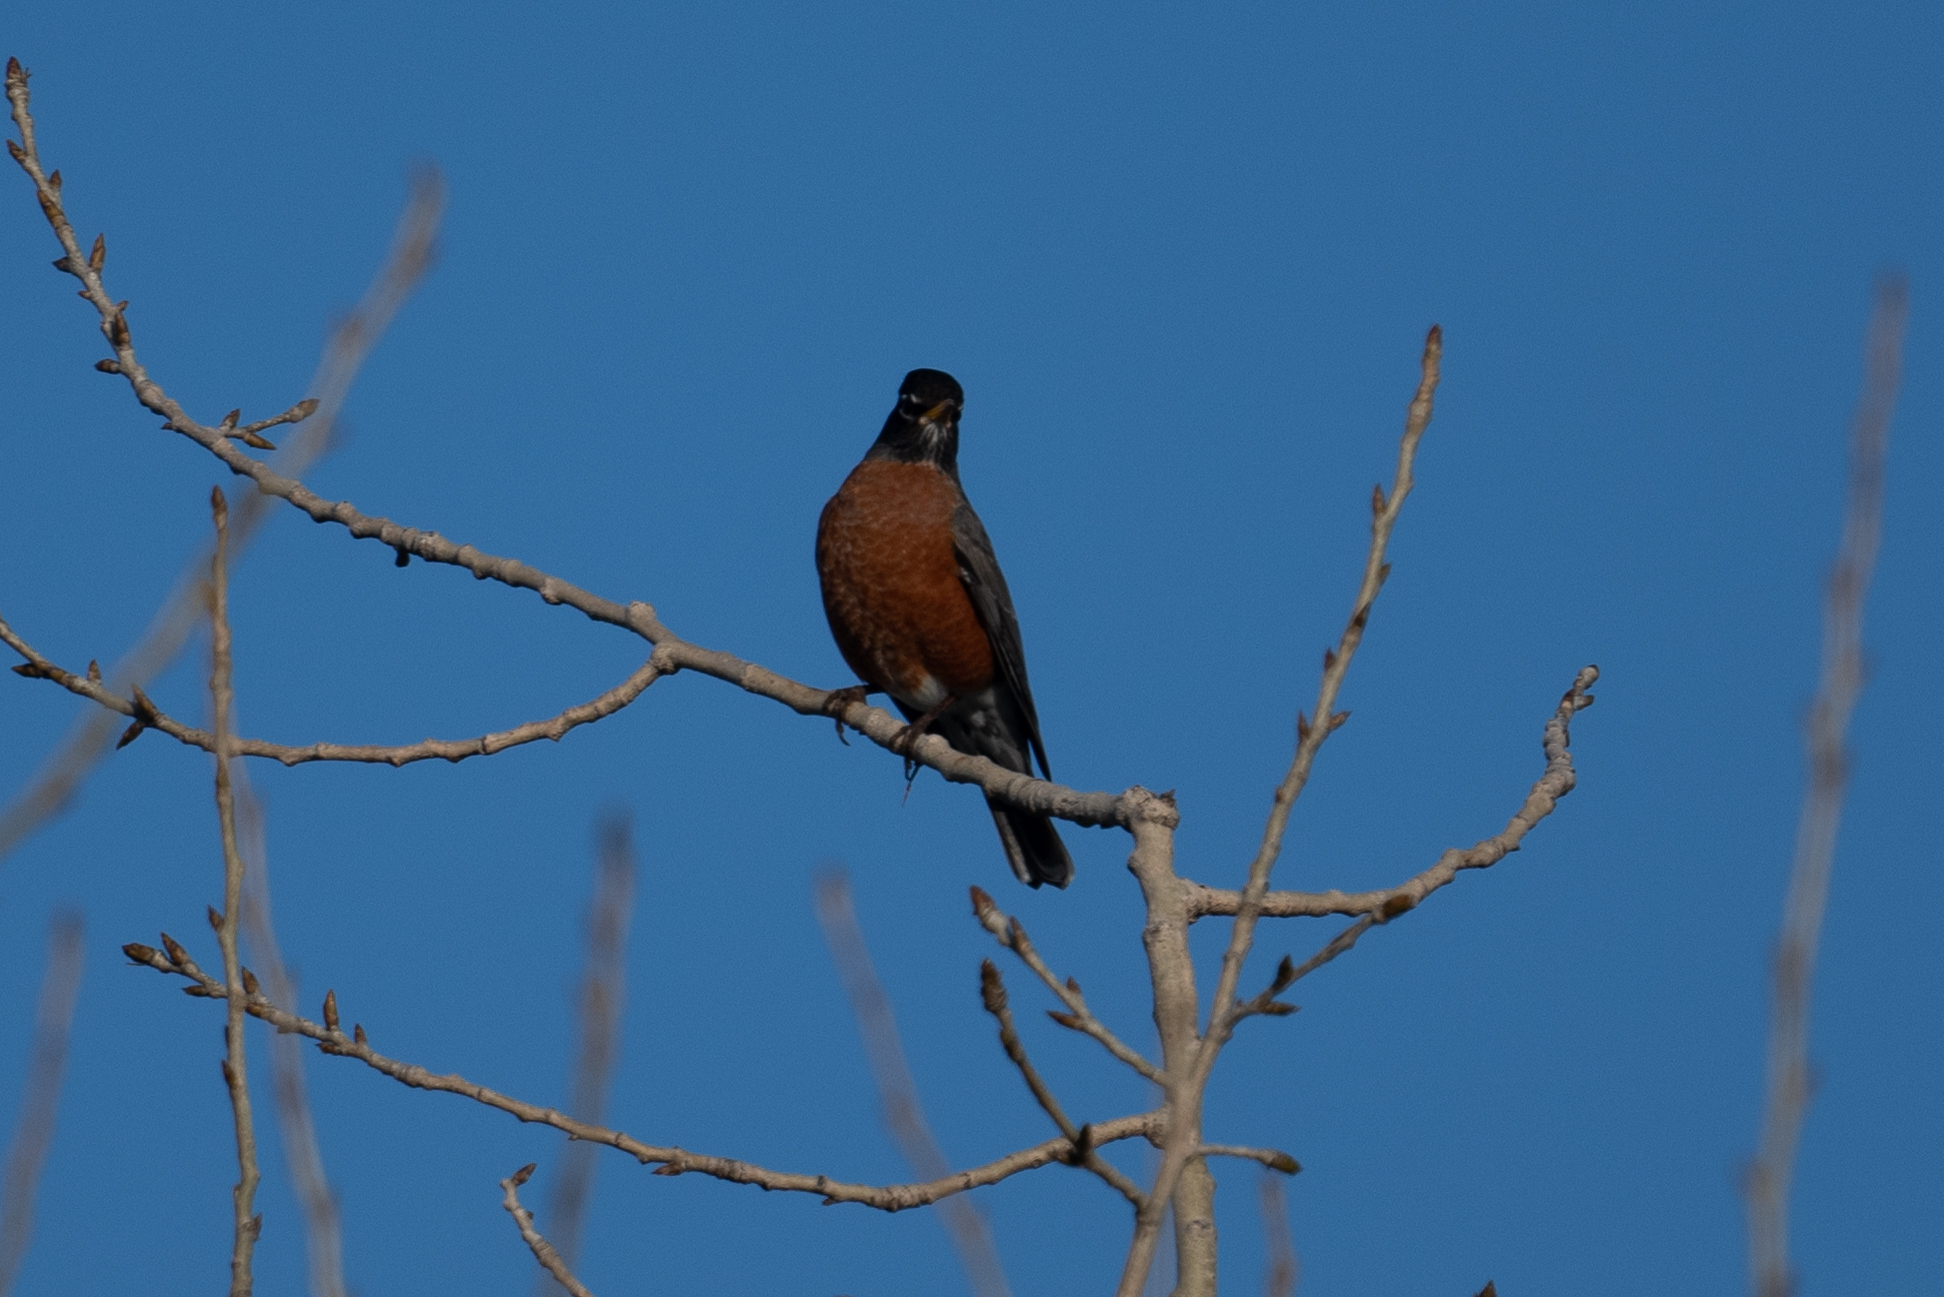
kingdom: Animalia
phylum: Chordata
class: Aves
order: Passeriformes
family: Turdidae
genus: Turdus
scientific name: Turdus migratorius
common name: American robin
